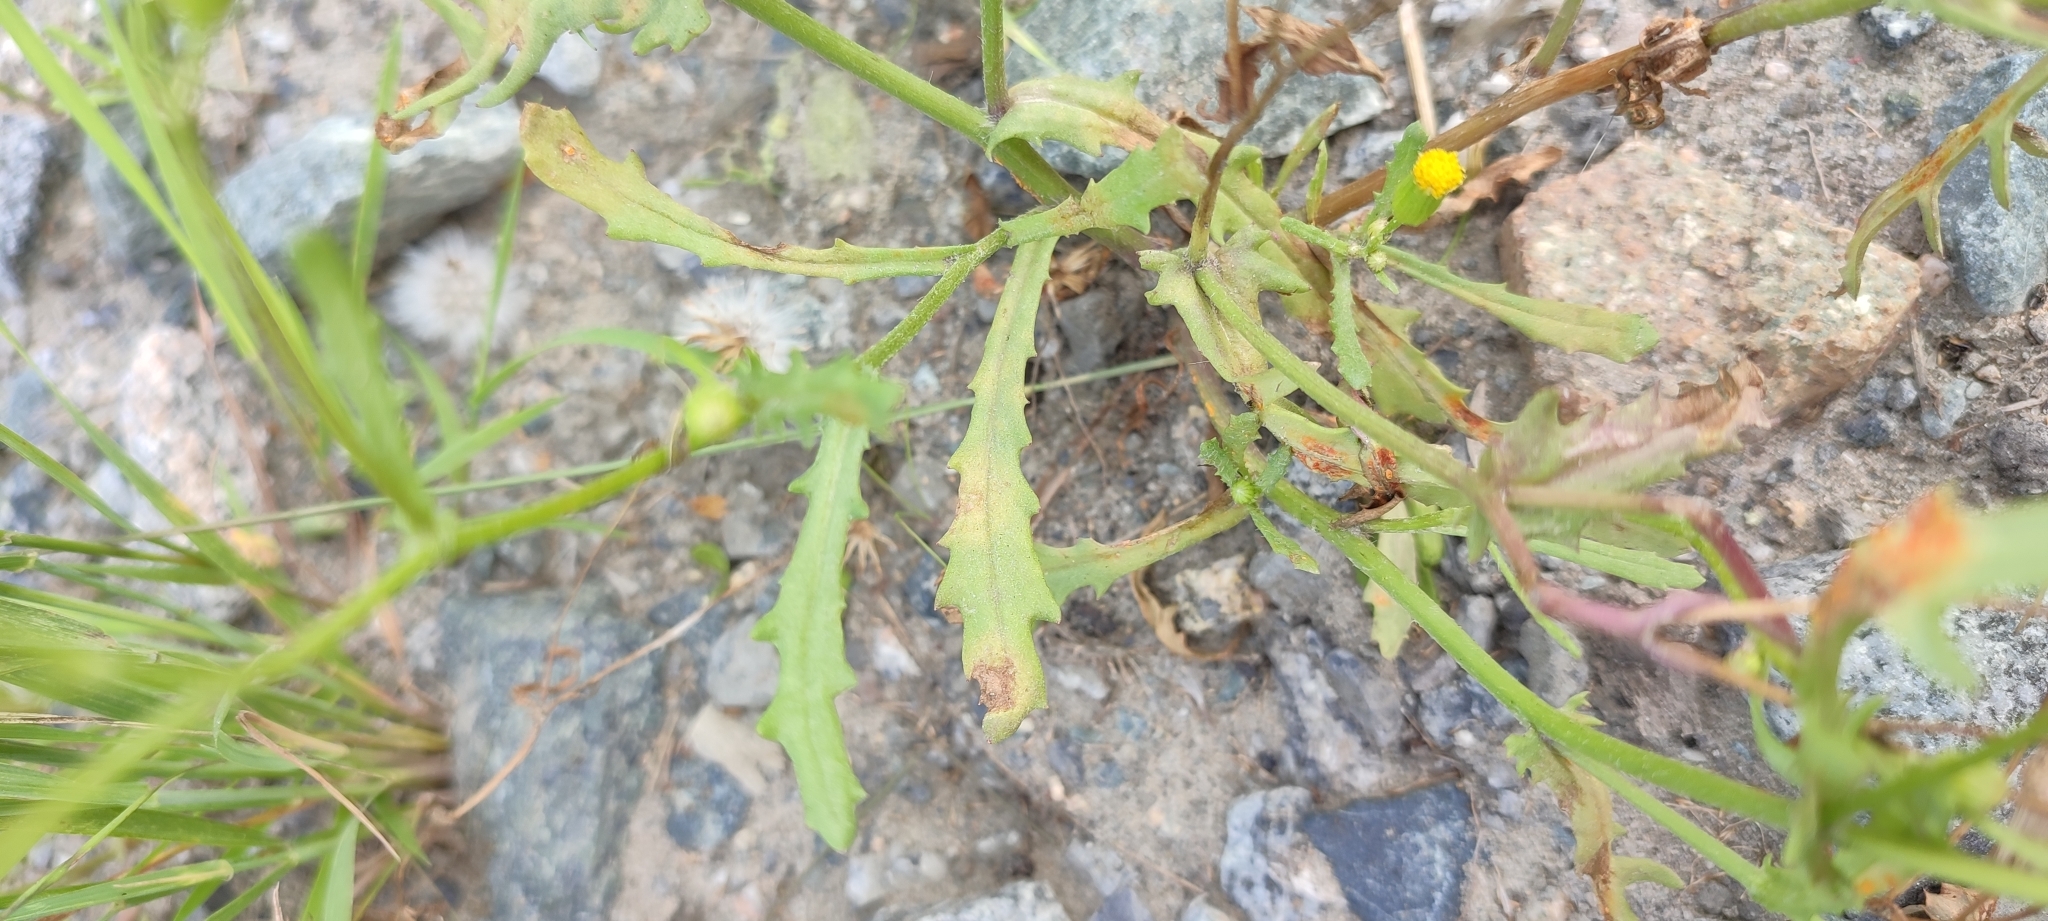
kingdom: Plantae
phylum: Tracheophyta
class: Magnoliopsida
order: Asterales
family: Asteraceae
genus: Senecio
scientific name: Senecio dubitabilis
